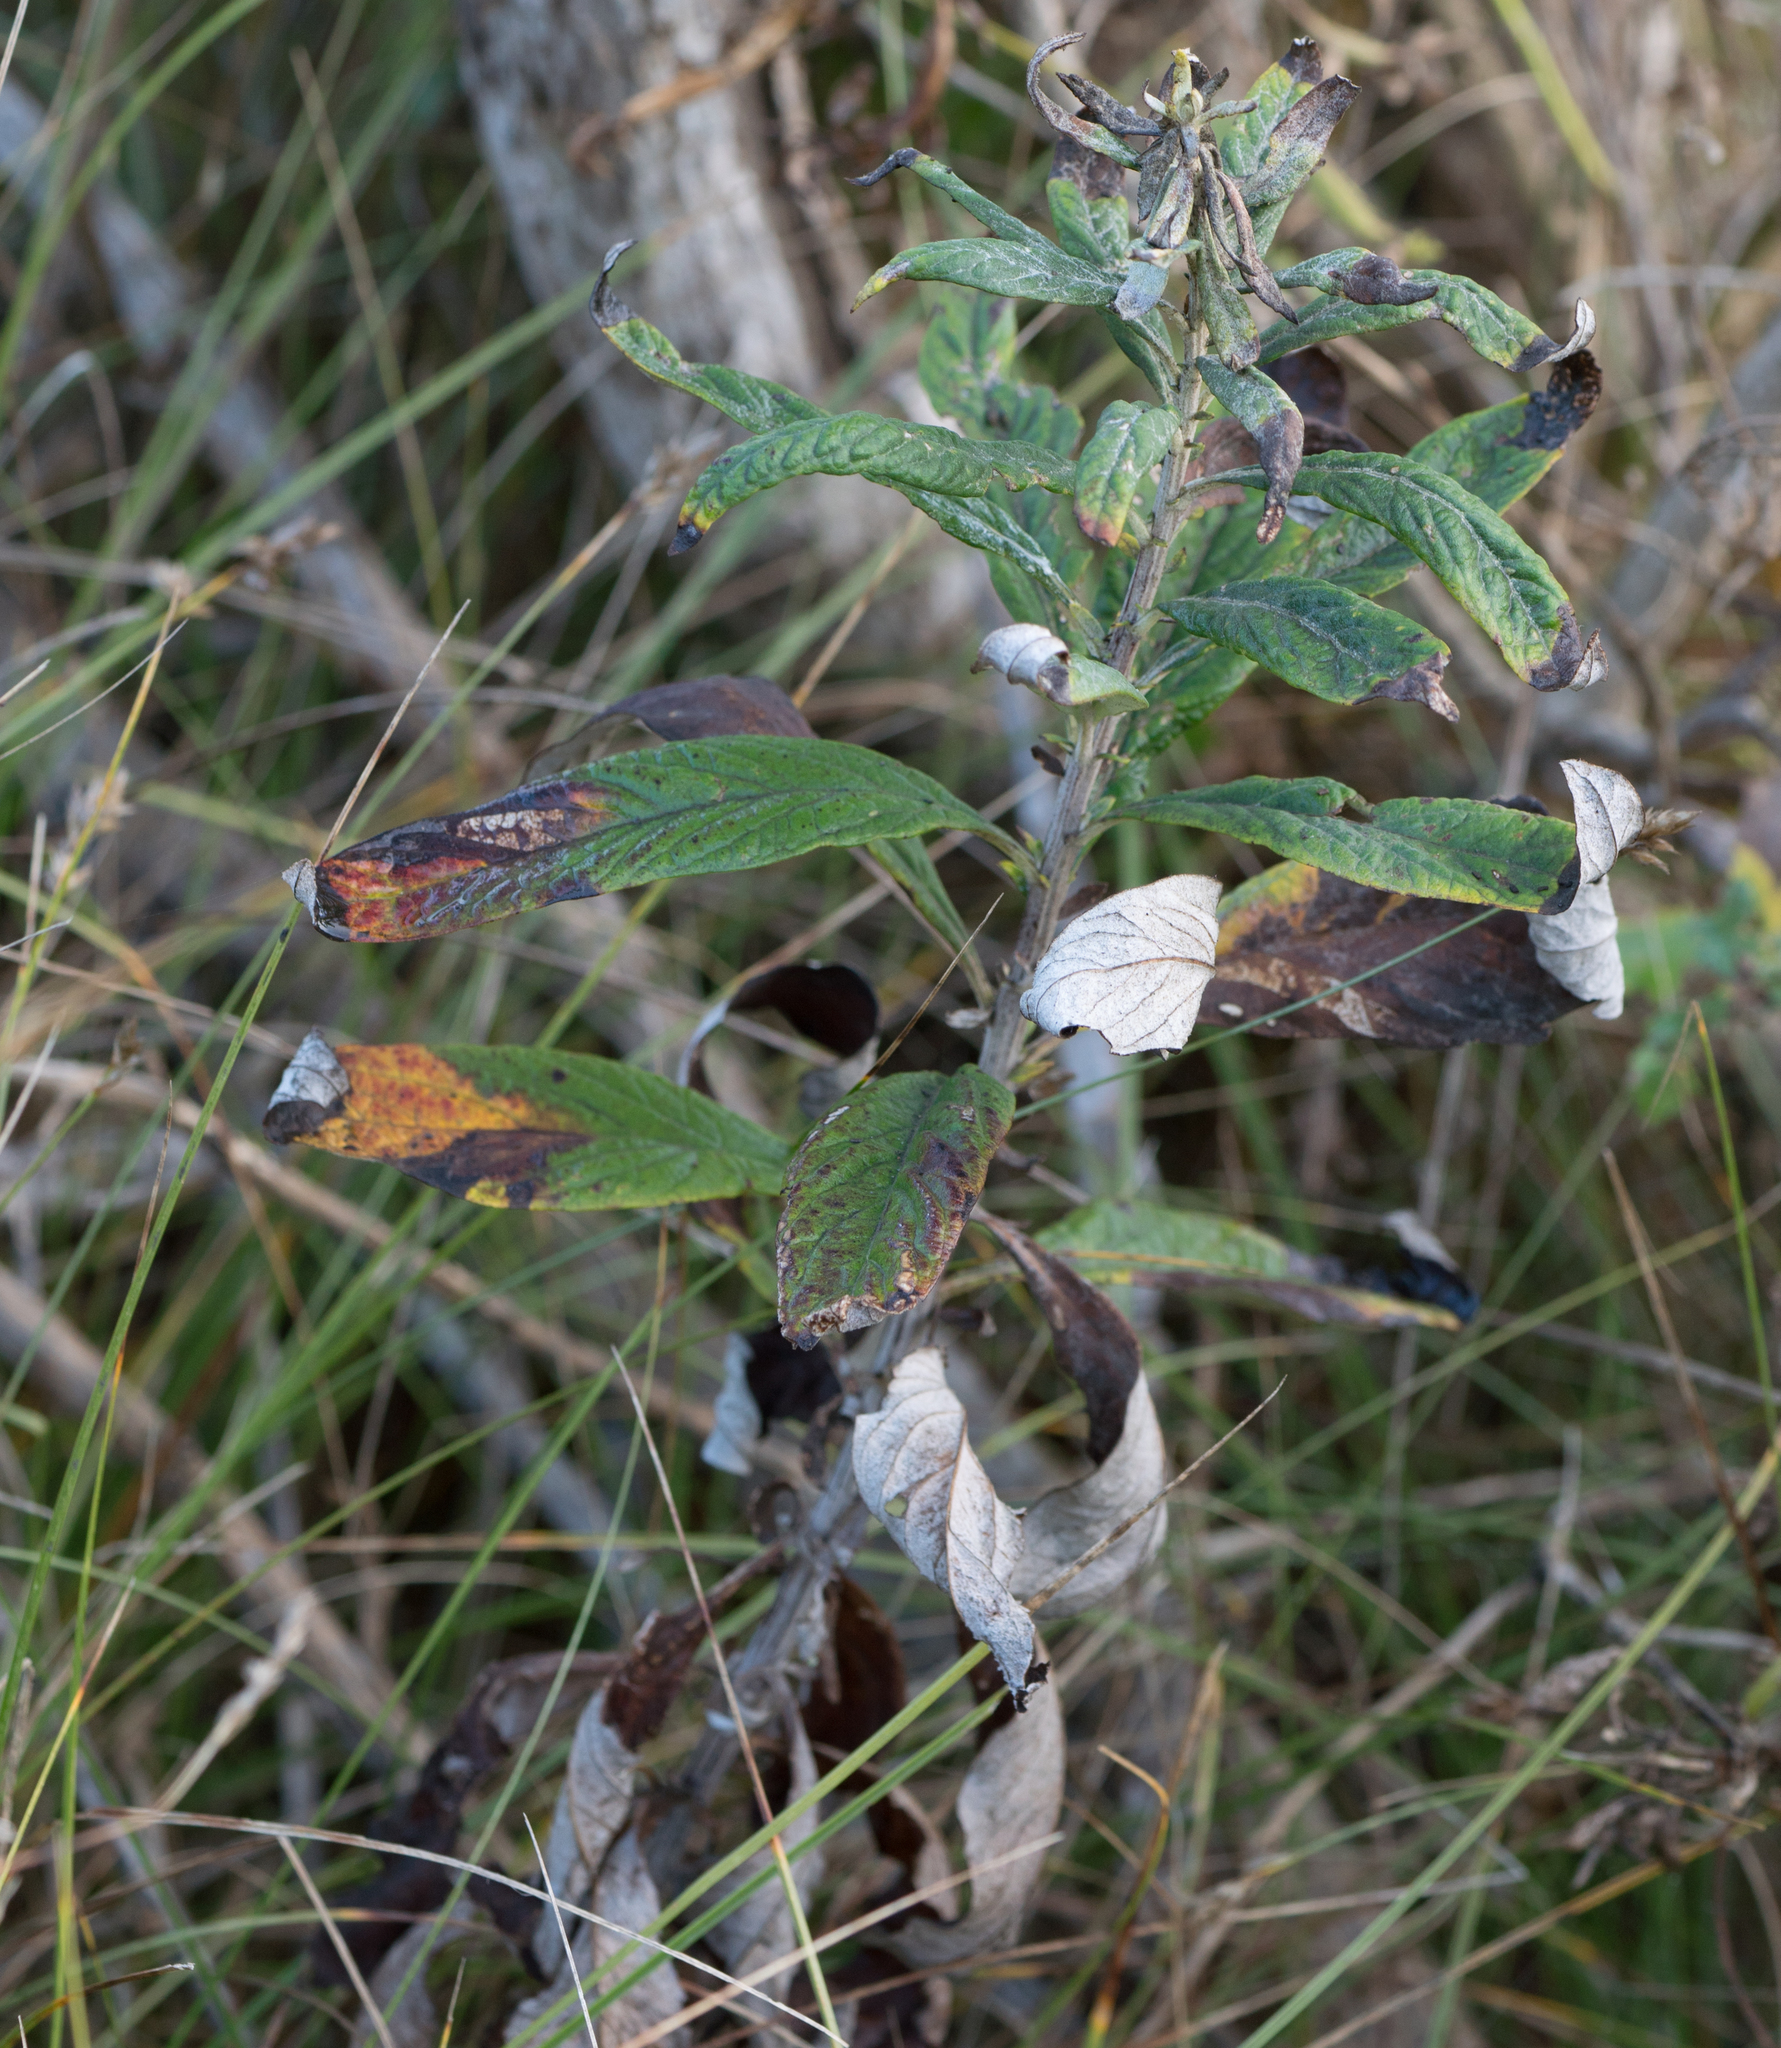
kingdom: Plantae
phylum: Tracheophyta
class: Magnoliopsida
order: Asterales
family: Asteraceae
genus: Artemisia
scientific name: Artemisia douglasiana
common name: Northwest mugwort
